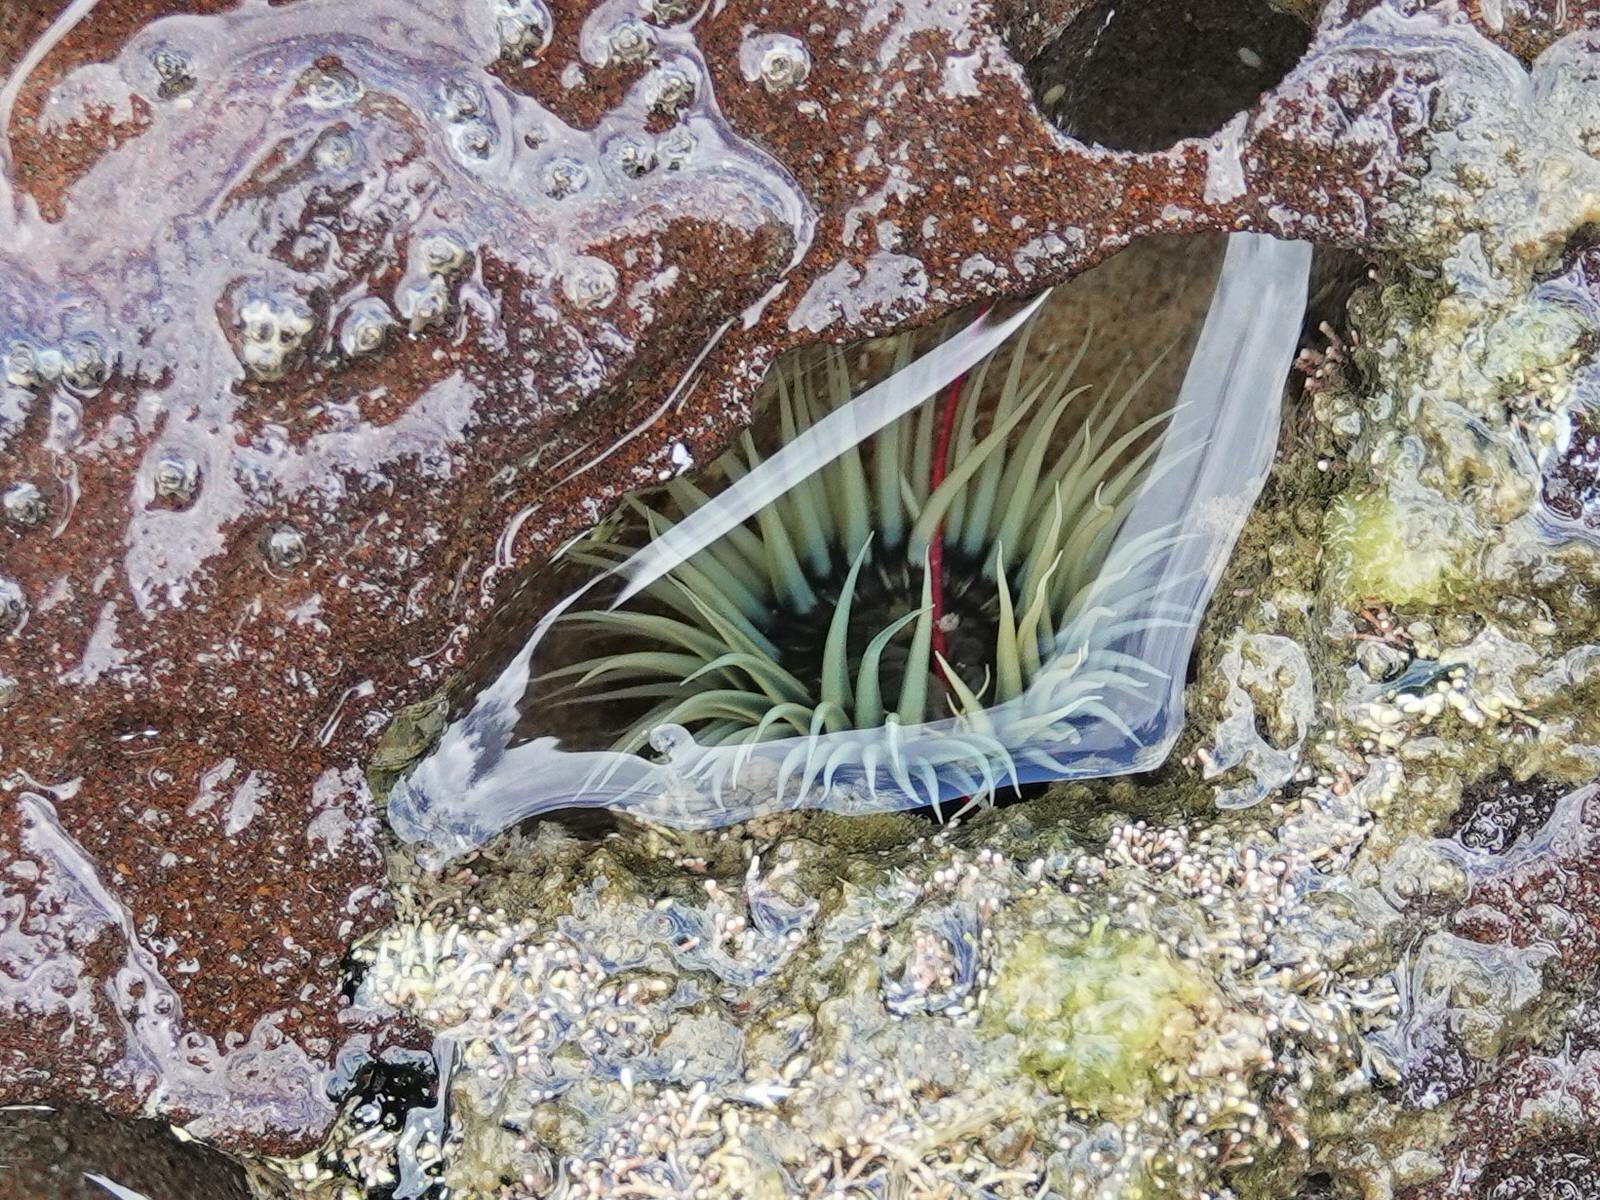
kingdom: Animalia
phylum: Cnidaria
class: Anthozoa
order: Actiniaria
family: Diadumenidae
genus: Diadumene
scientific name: Diadumene lineata
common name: Orange-striped anemone
